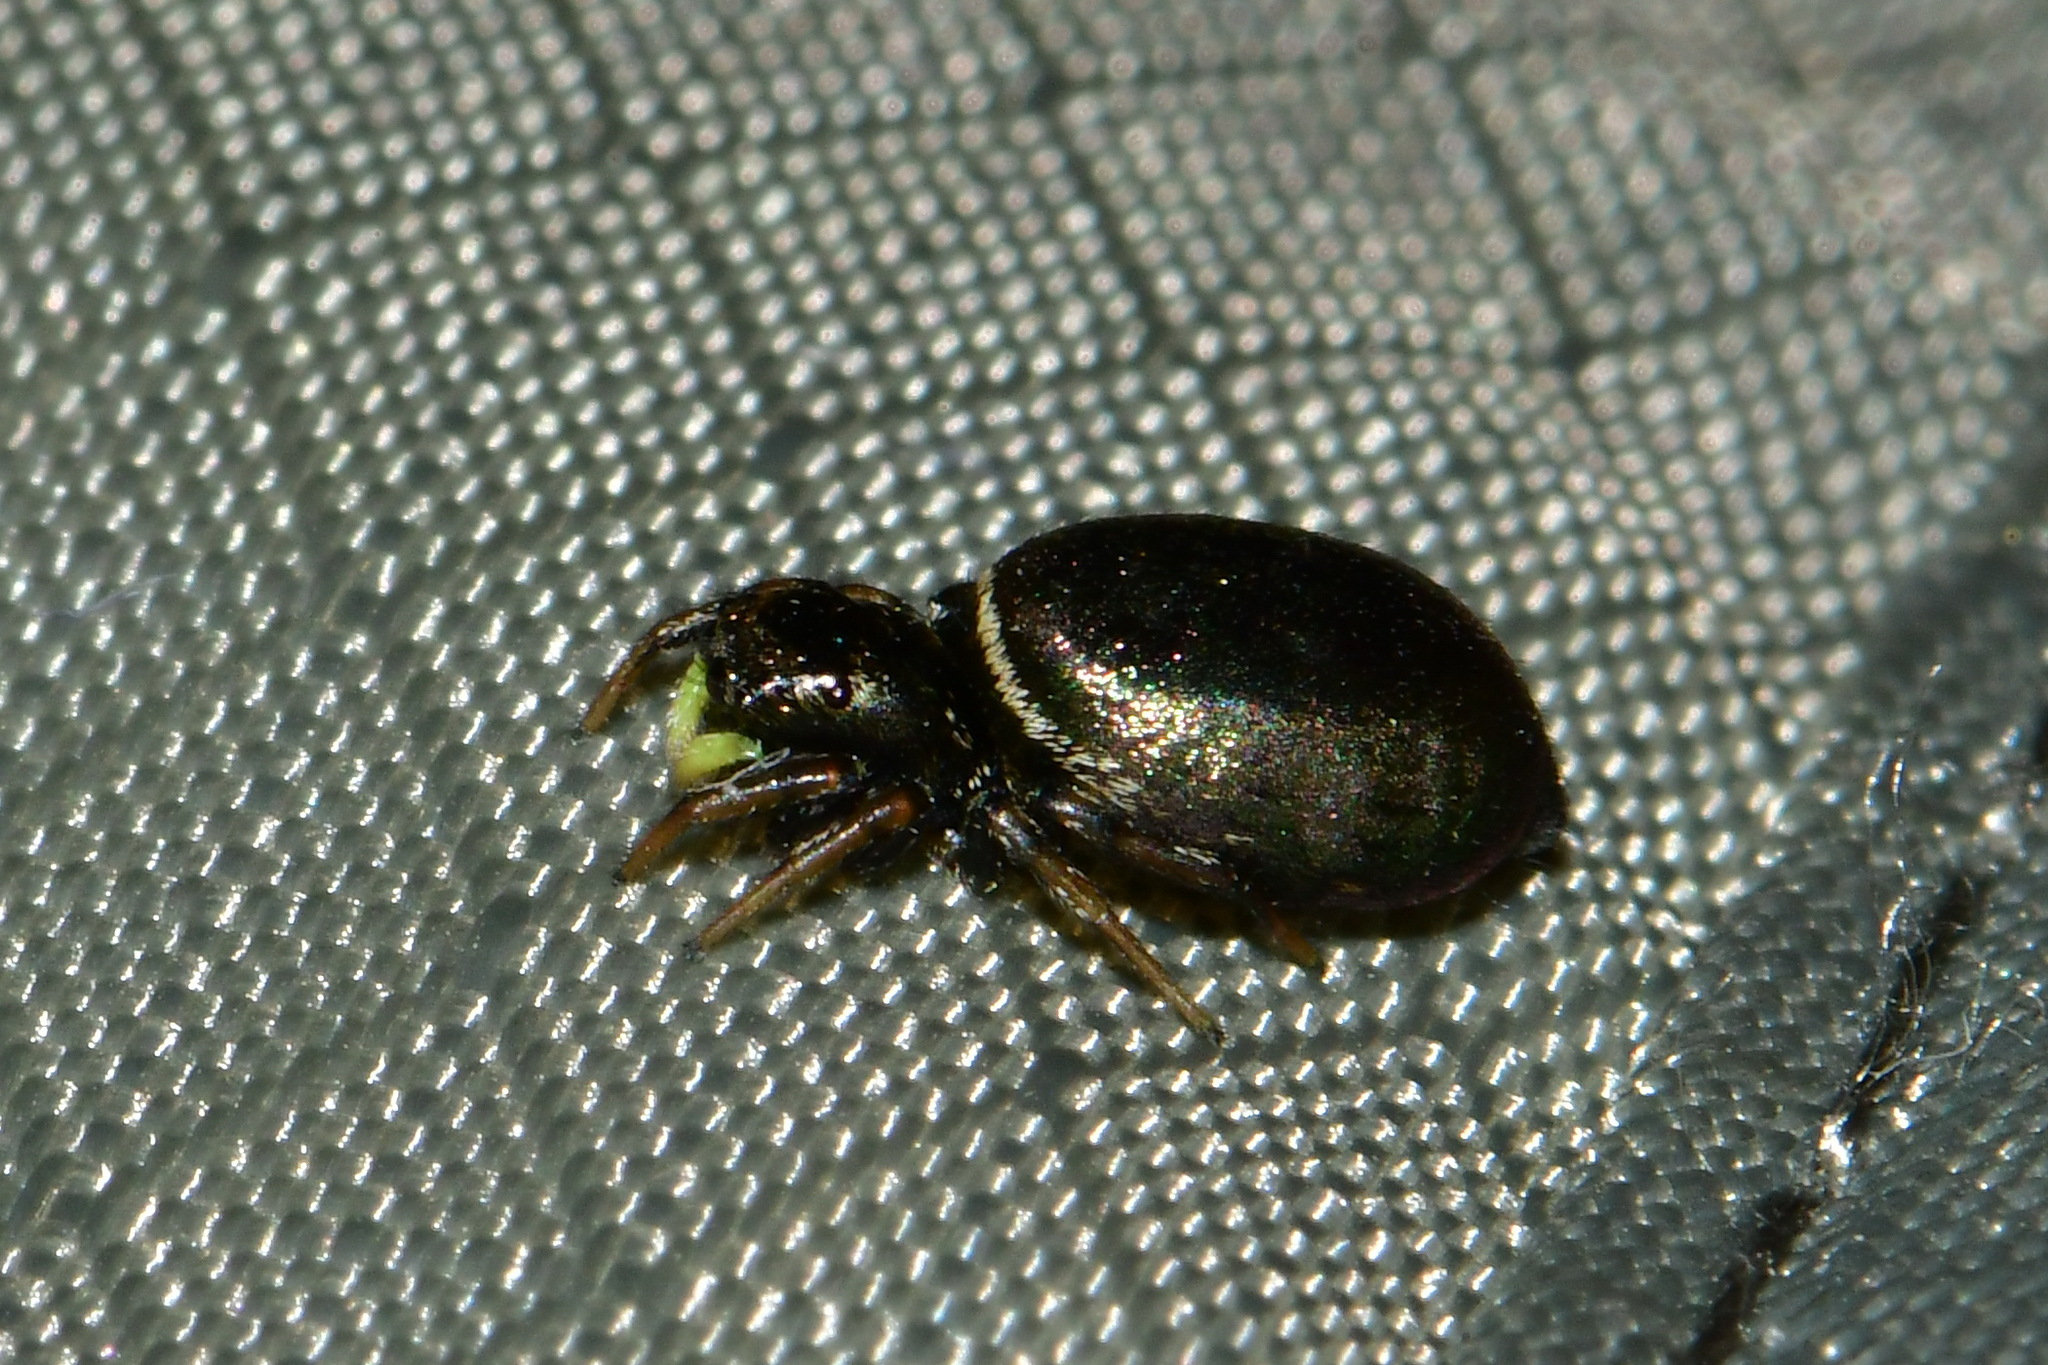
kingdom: Animalia
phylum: Arthropoda
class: Arachnida
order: Araneae
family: Salticidae
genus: Heliophanus
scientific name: Heliophanus auratus
